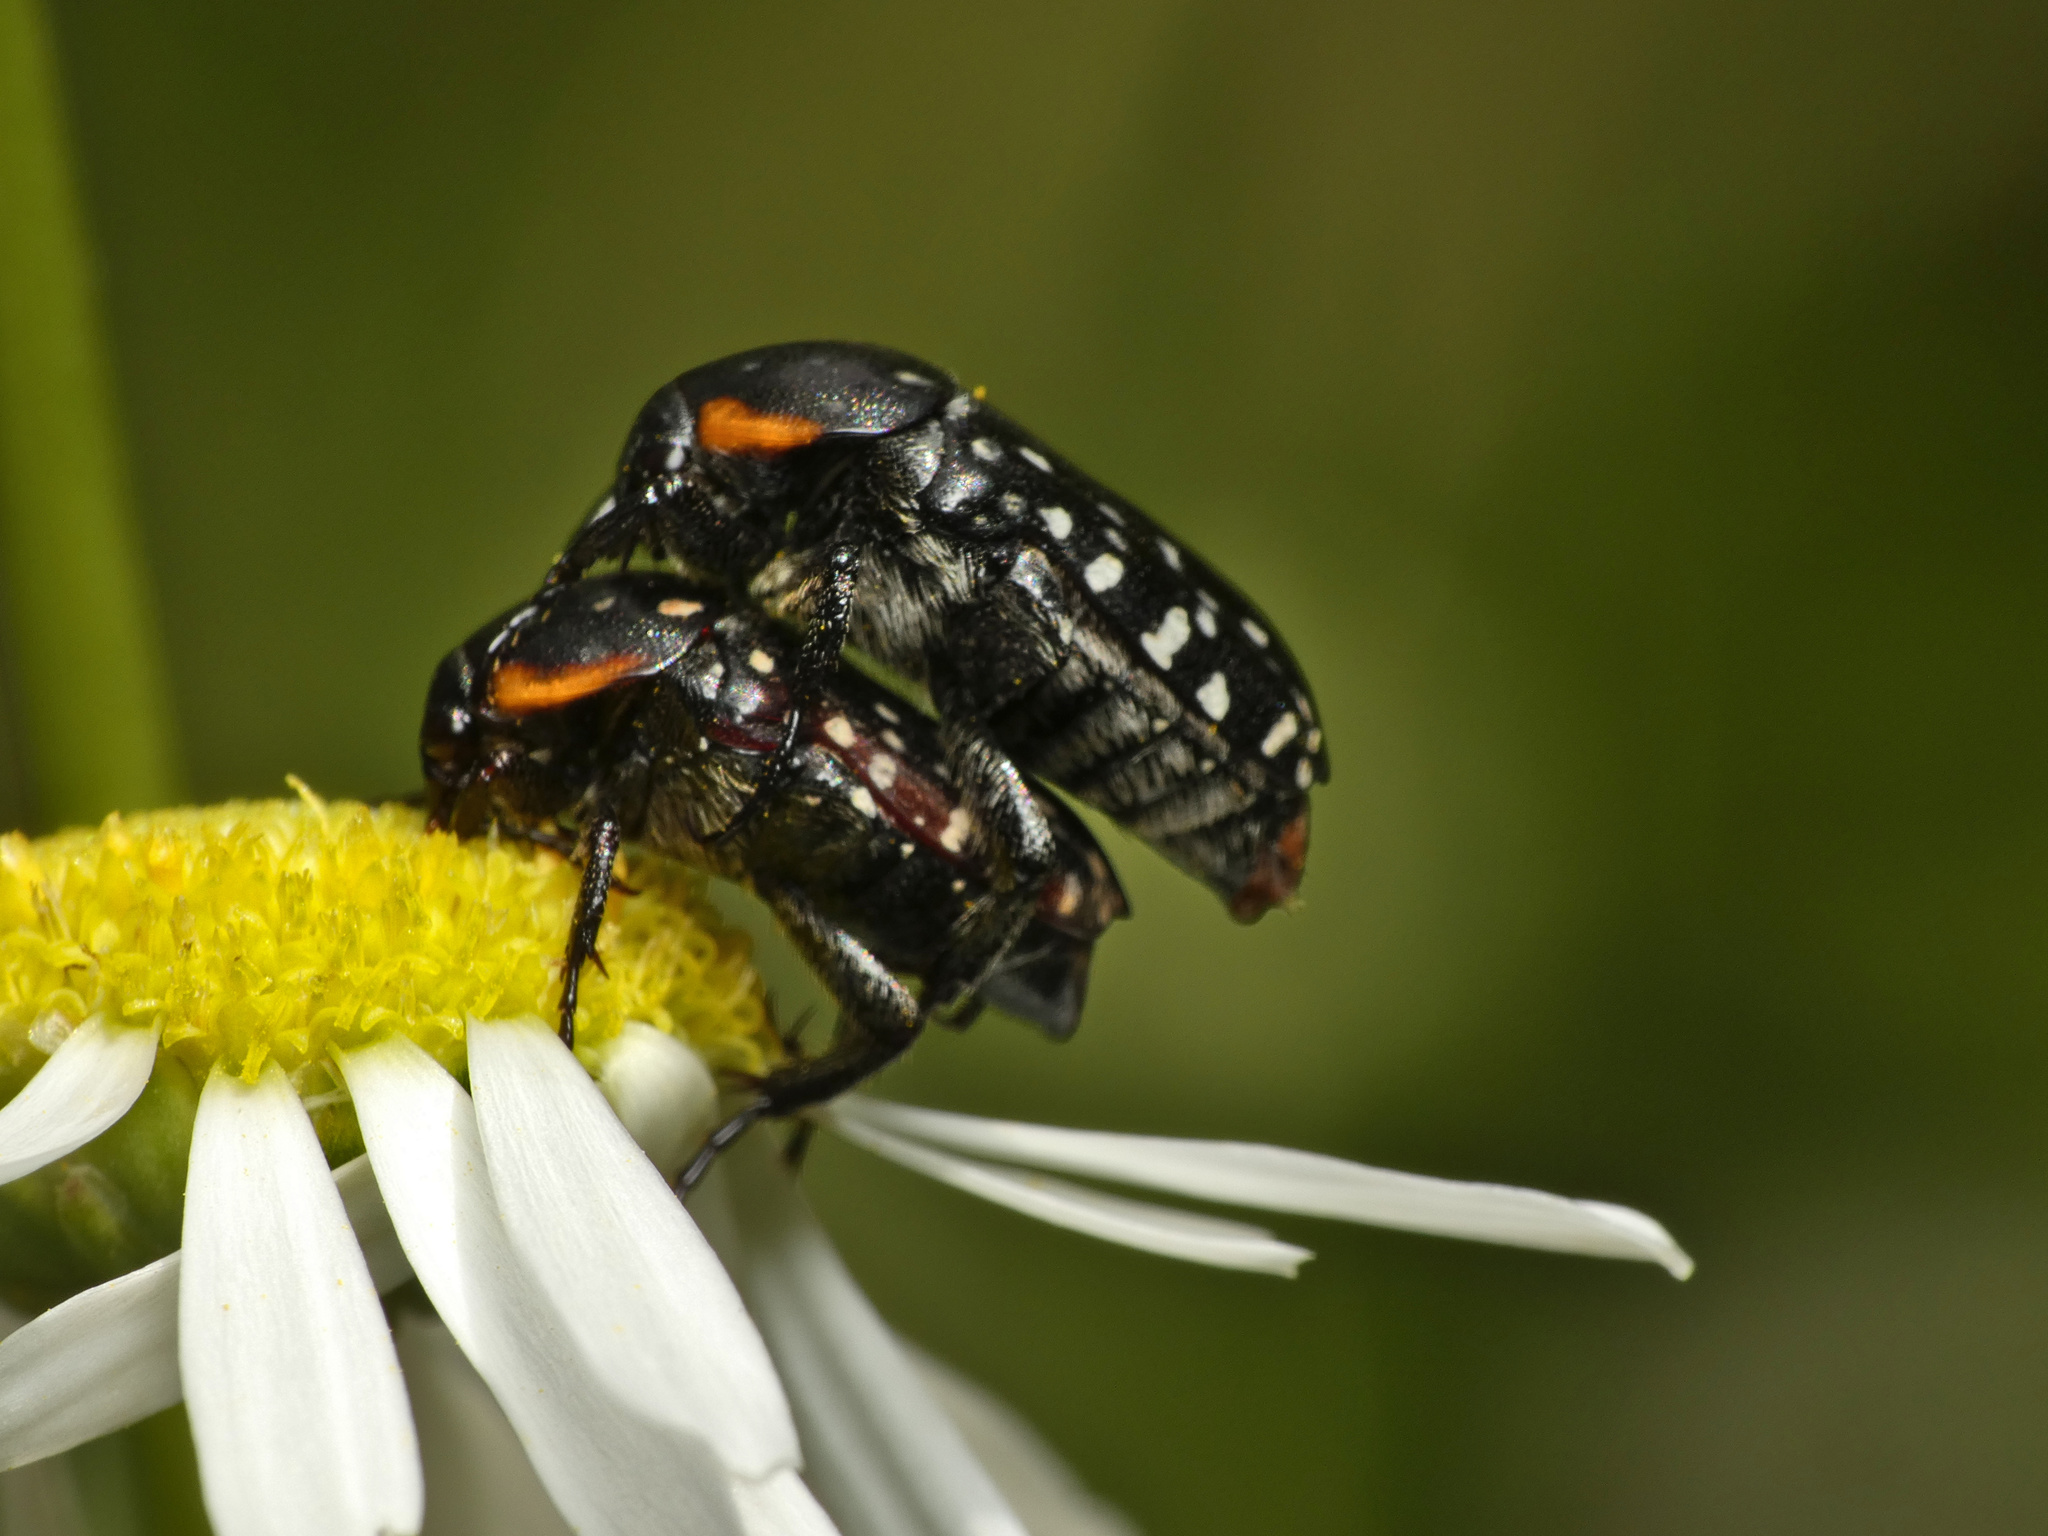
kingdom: Animalia
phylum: Arthropoda
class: Insecta
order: Coleoptera
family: Scarabaeidae
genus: Oxythyrea
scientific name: Oxythyrea
